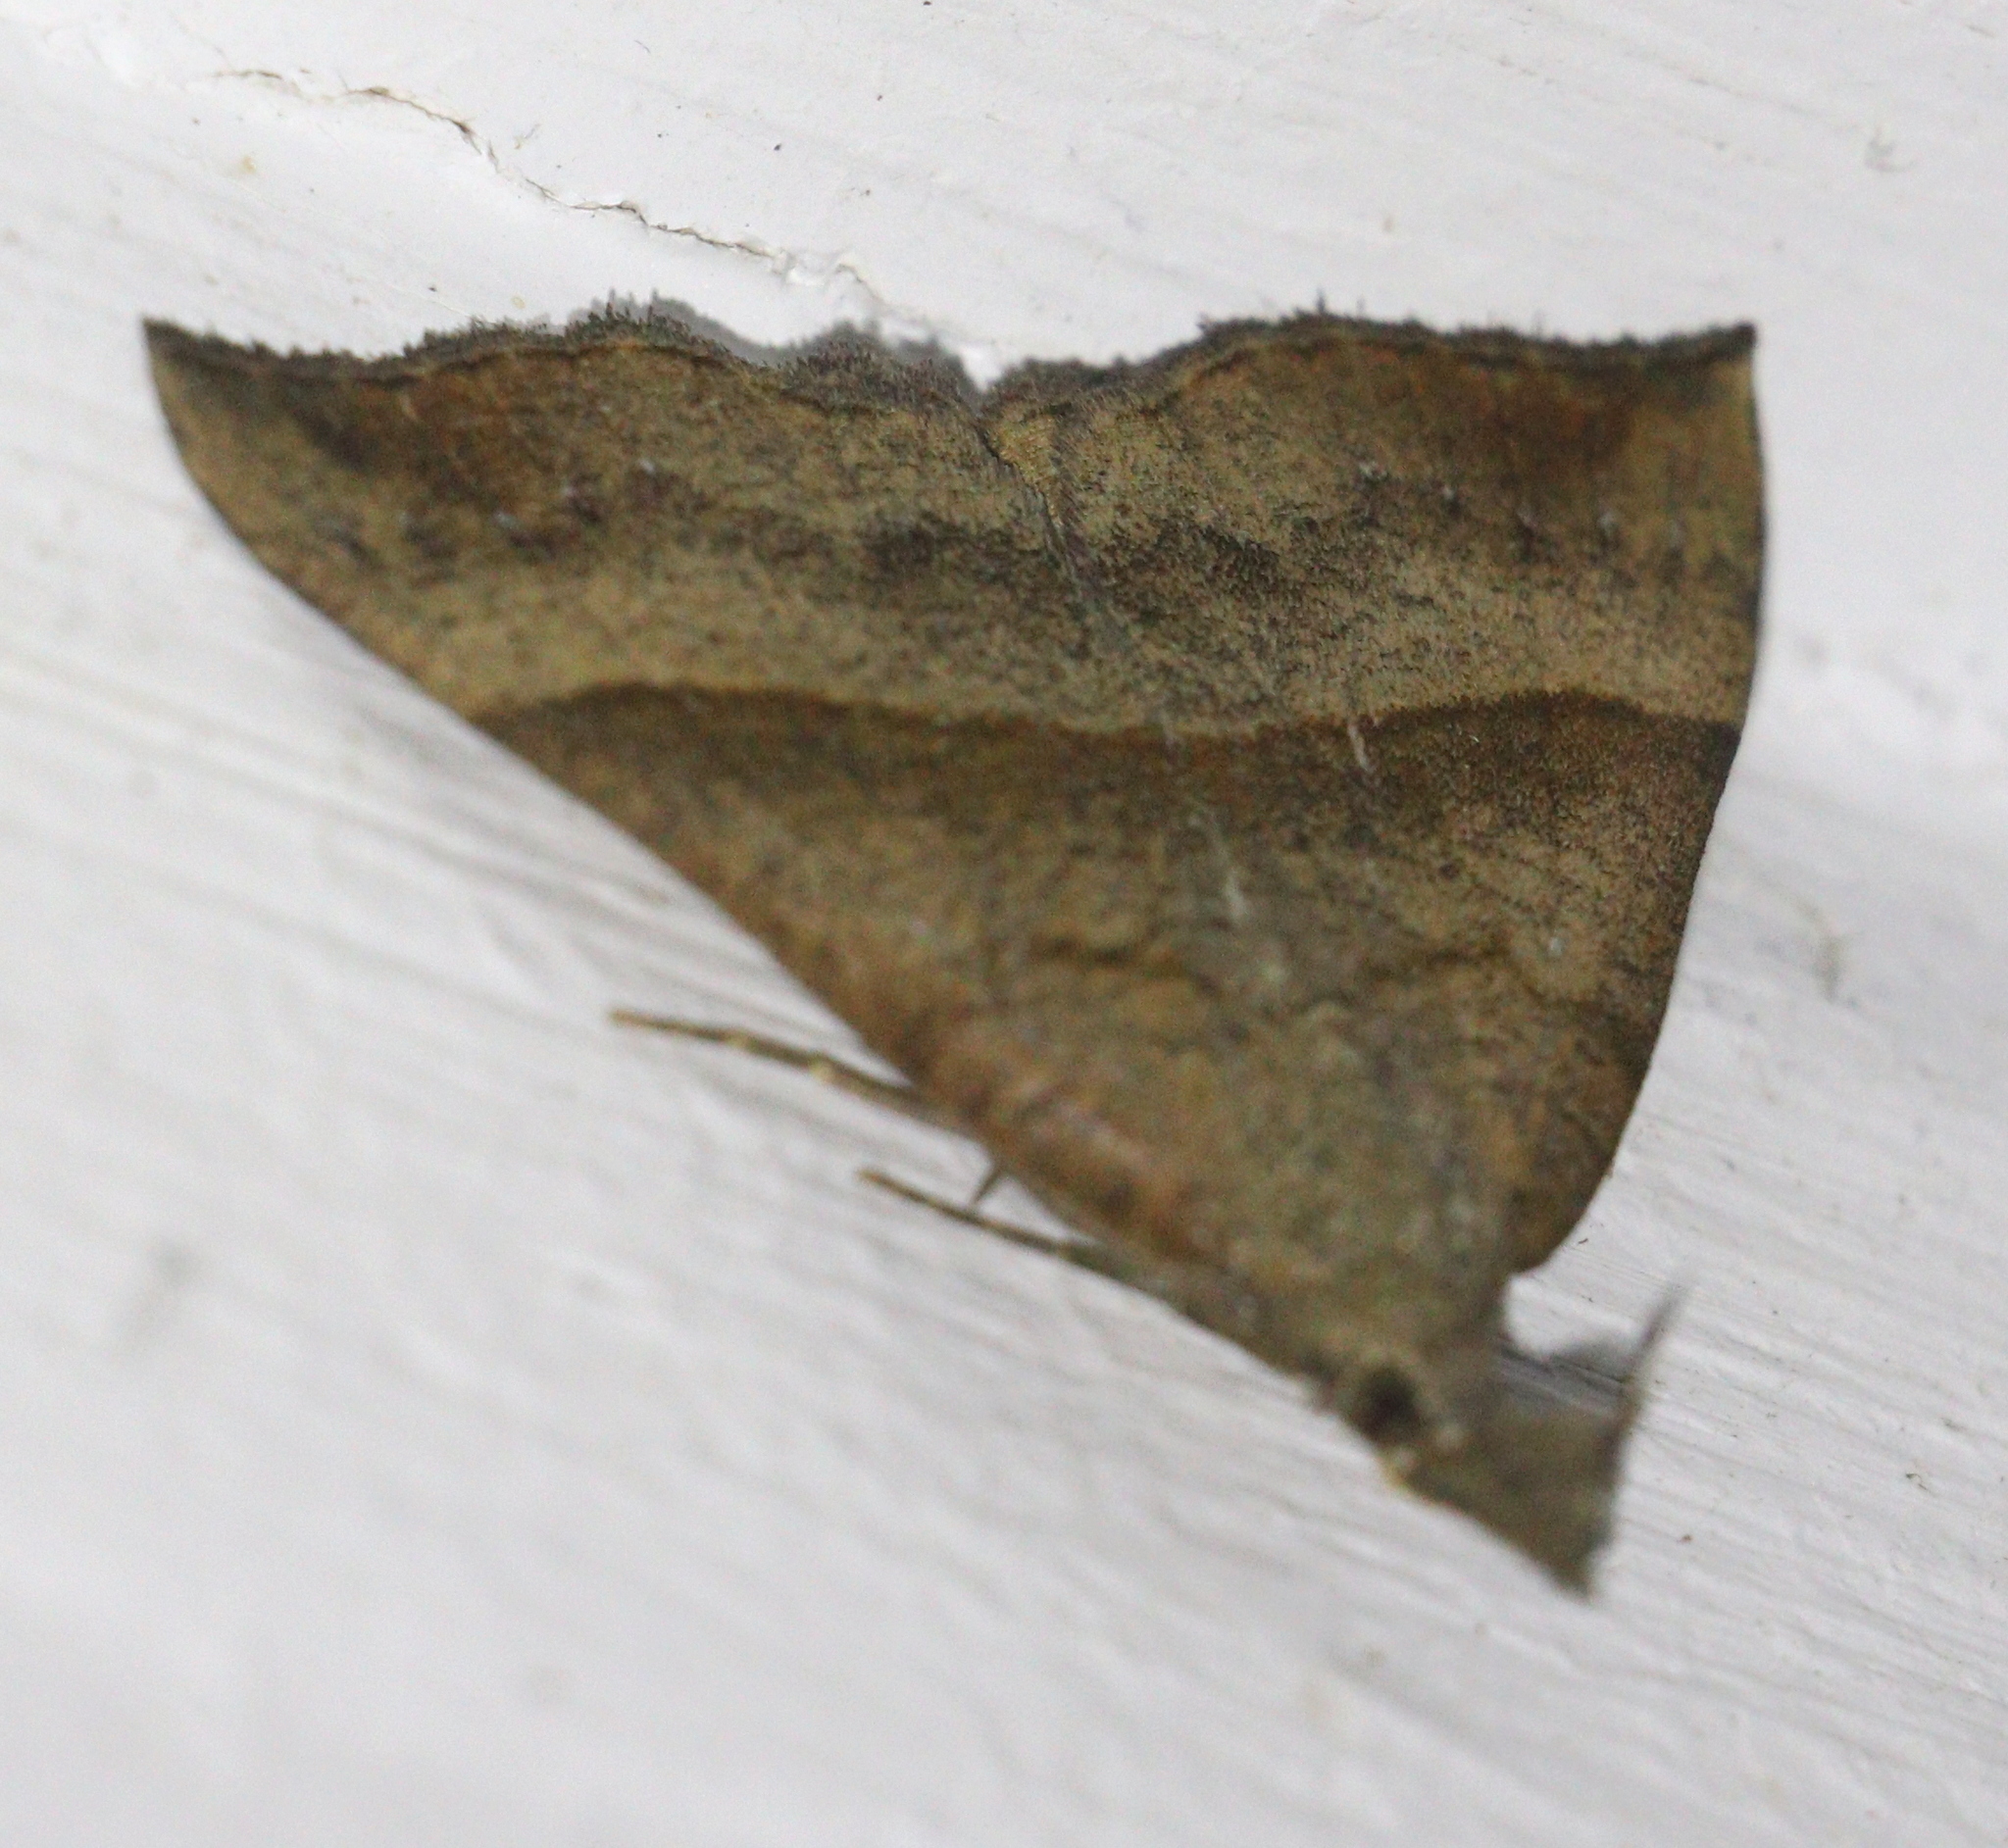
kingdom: Animalia
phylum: Arthropoda
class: Insecta
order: Lepidoptera
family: Erebidae
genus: Hypena
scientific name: Hypena proboscidalis
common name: Snout
